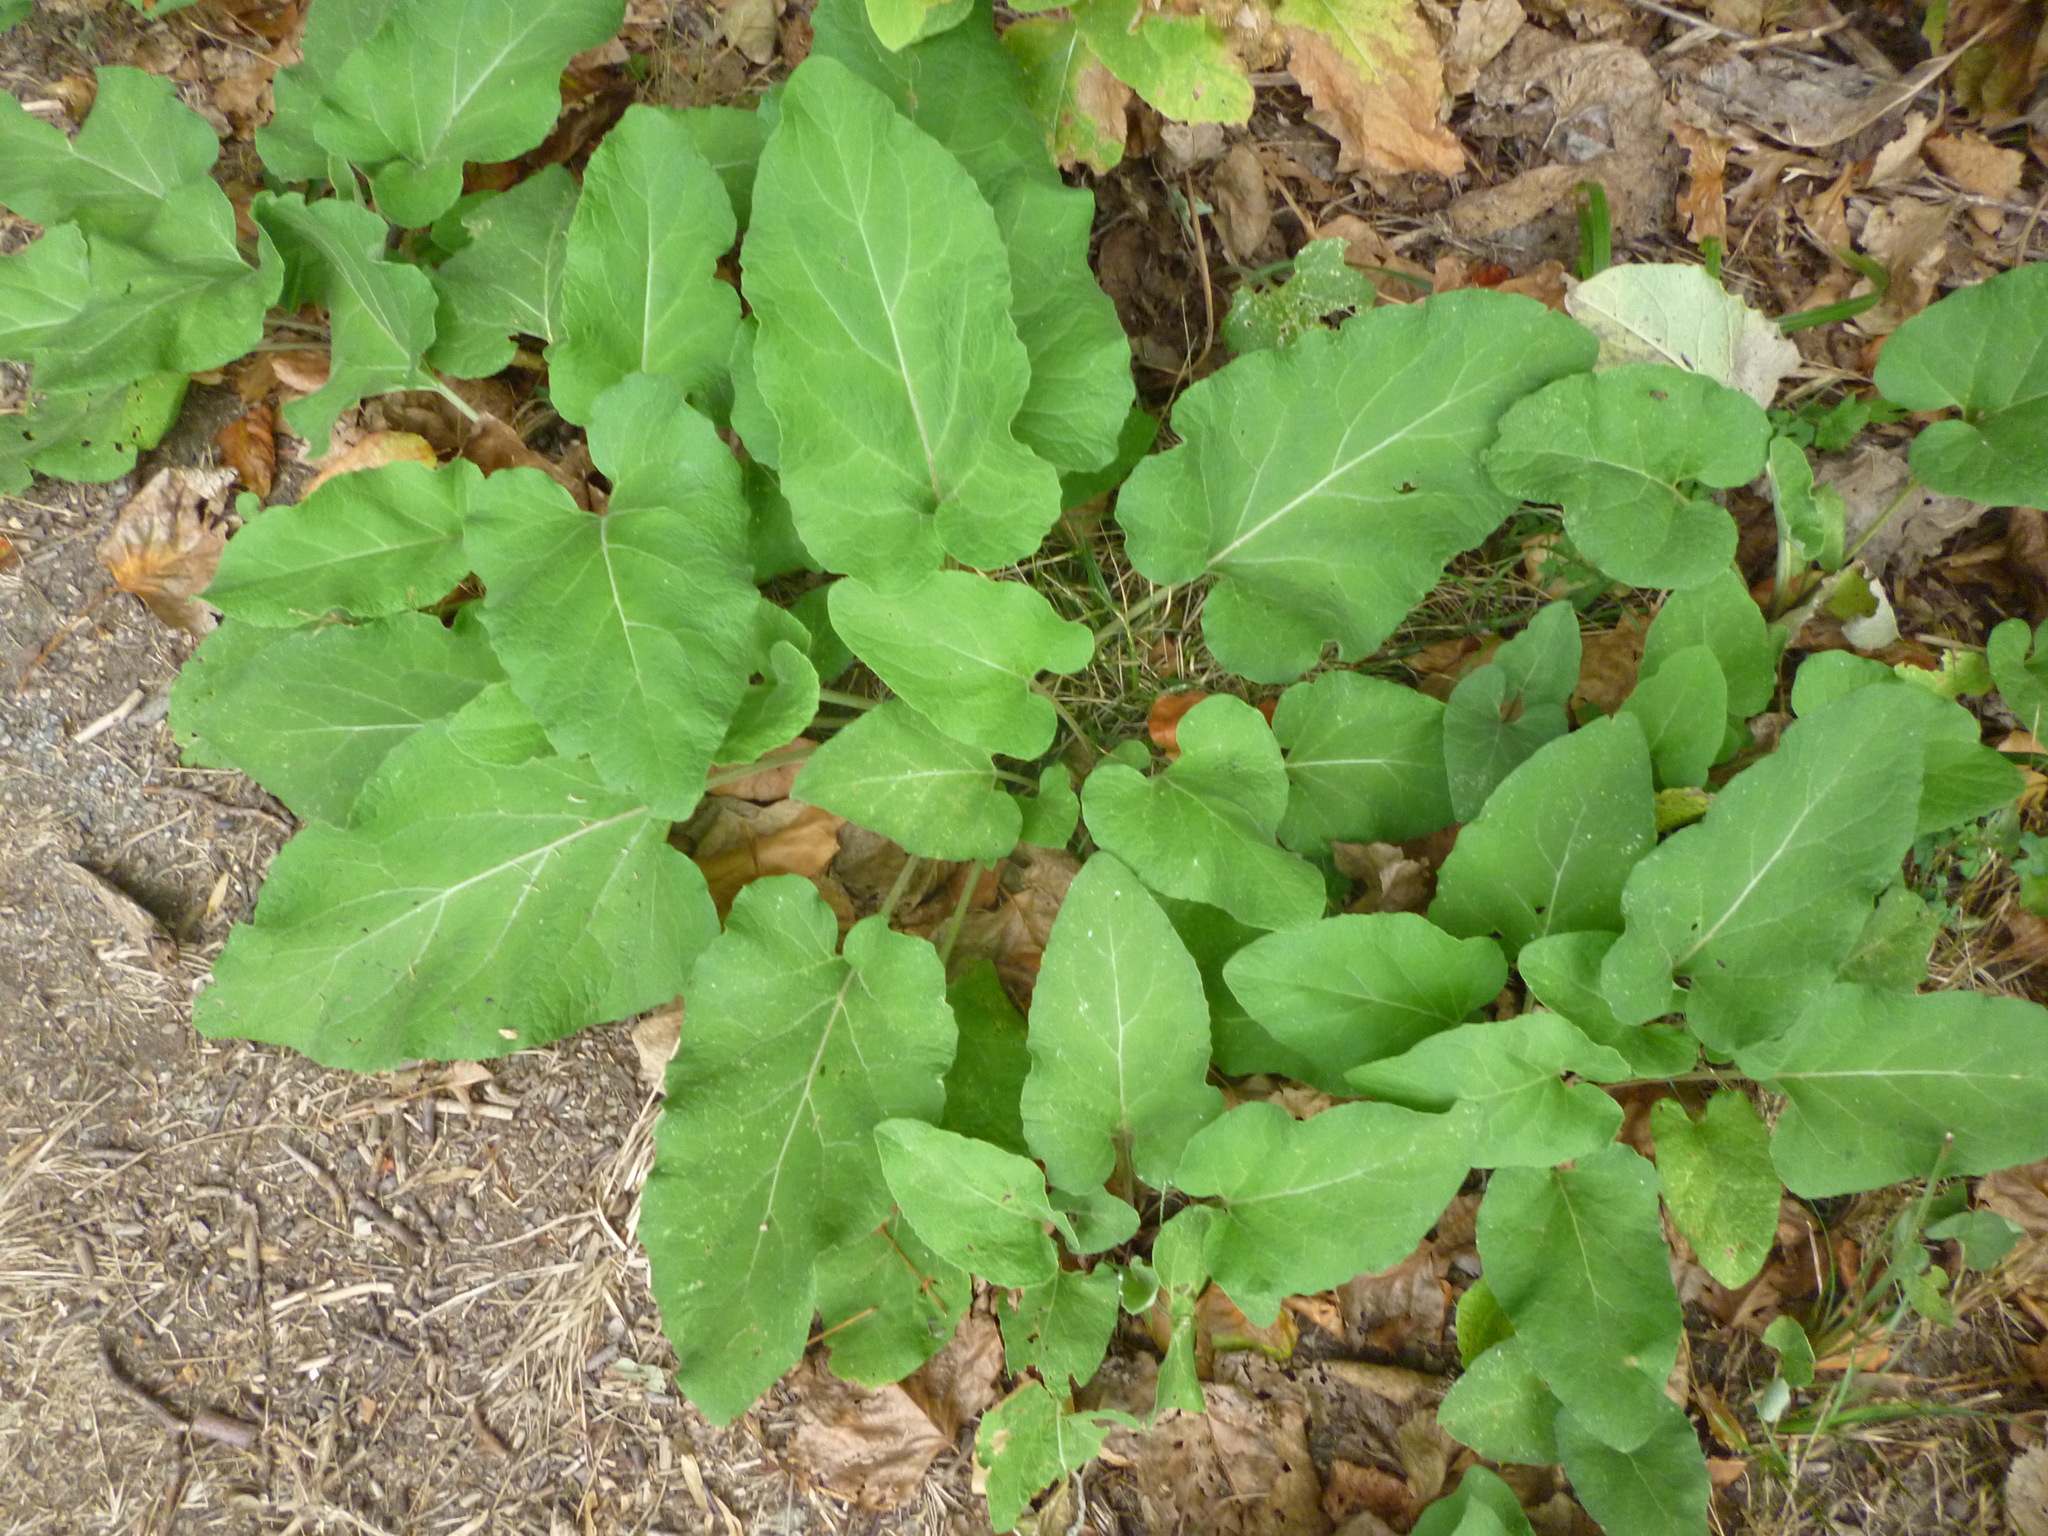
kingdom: Plantae
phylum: Tracheophyta
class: Magnoliopsida
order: Asterales
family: Asteraceae
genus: Arctium
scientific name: Arctium
